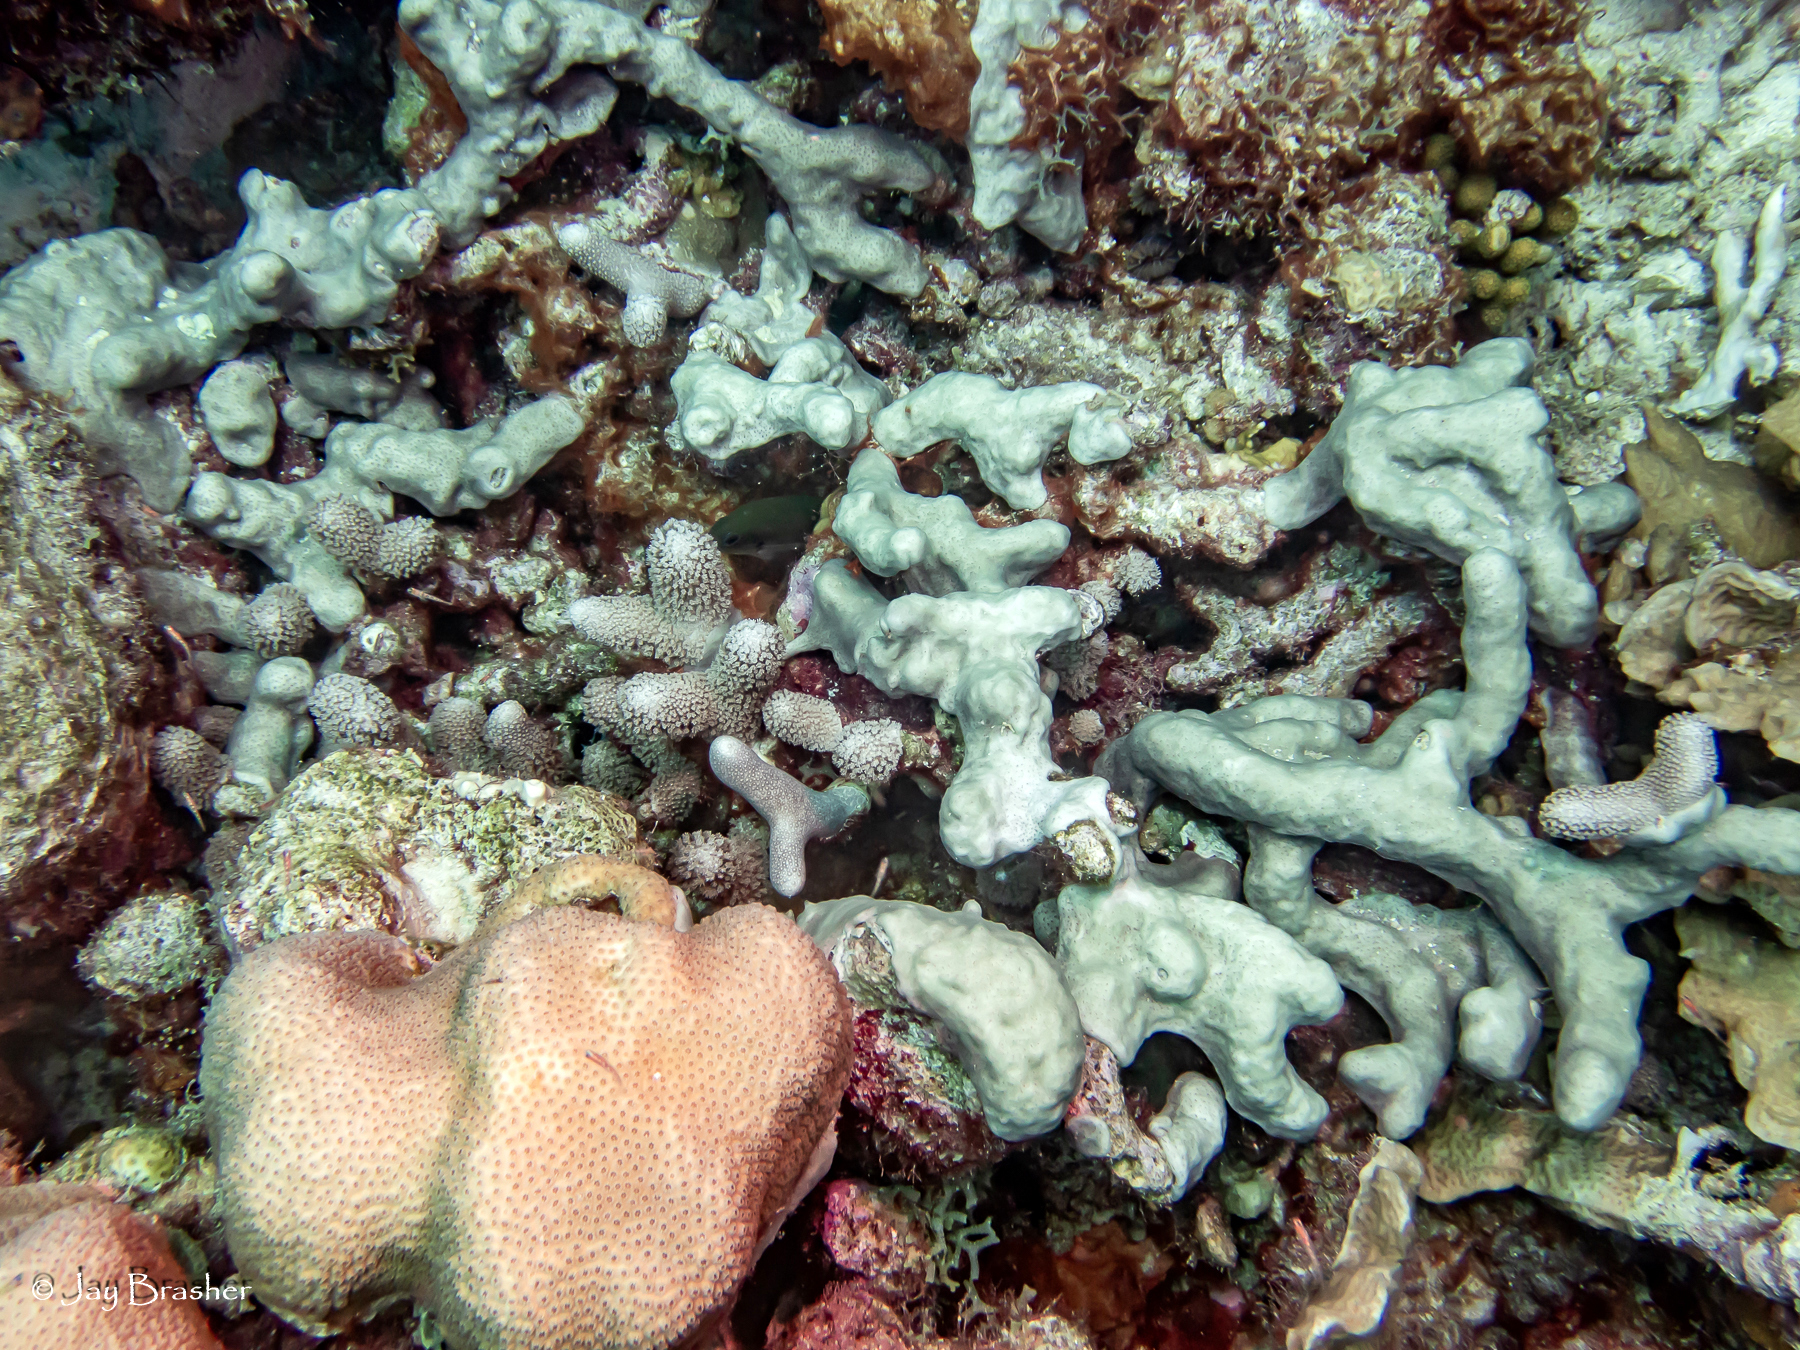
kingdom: Animalia
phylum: Cnidaria
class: Anthozoa
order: Scleractinia
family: Poritidae
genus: Porites
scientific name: Porites porites
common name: Finger coral
